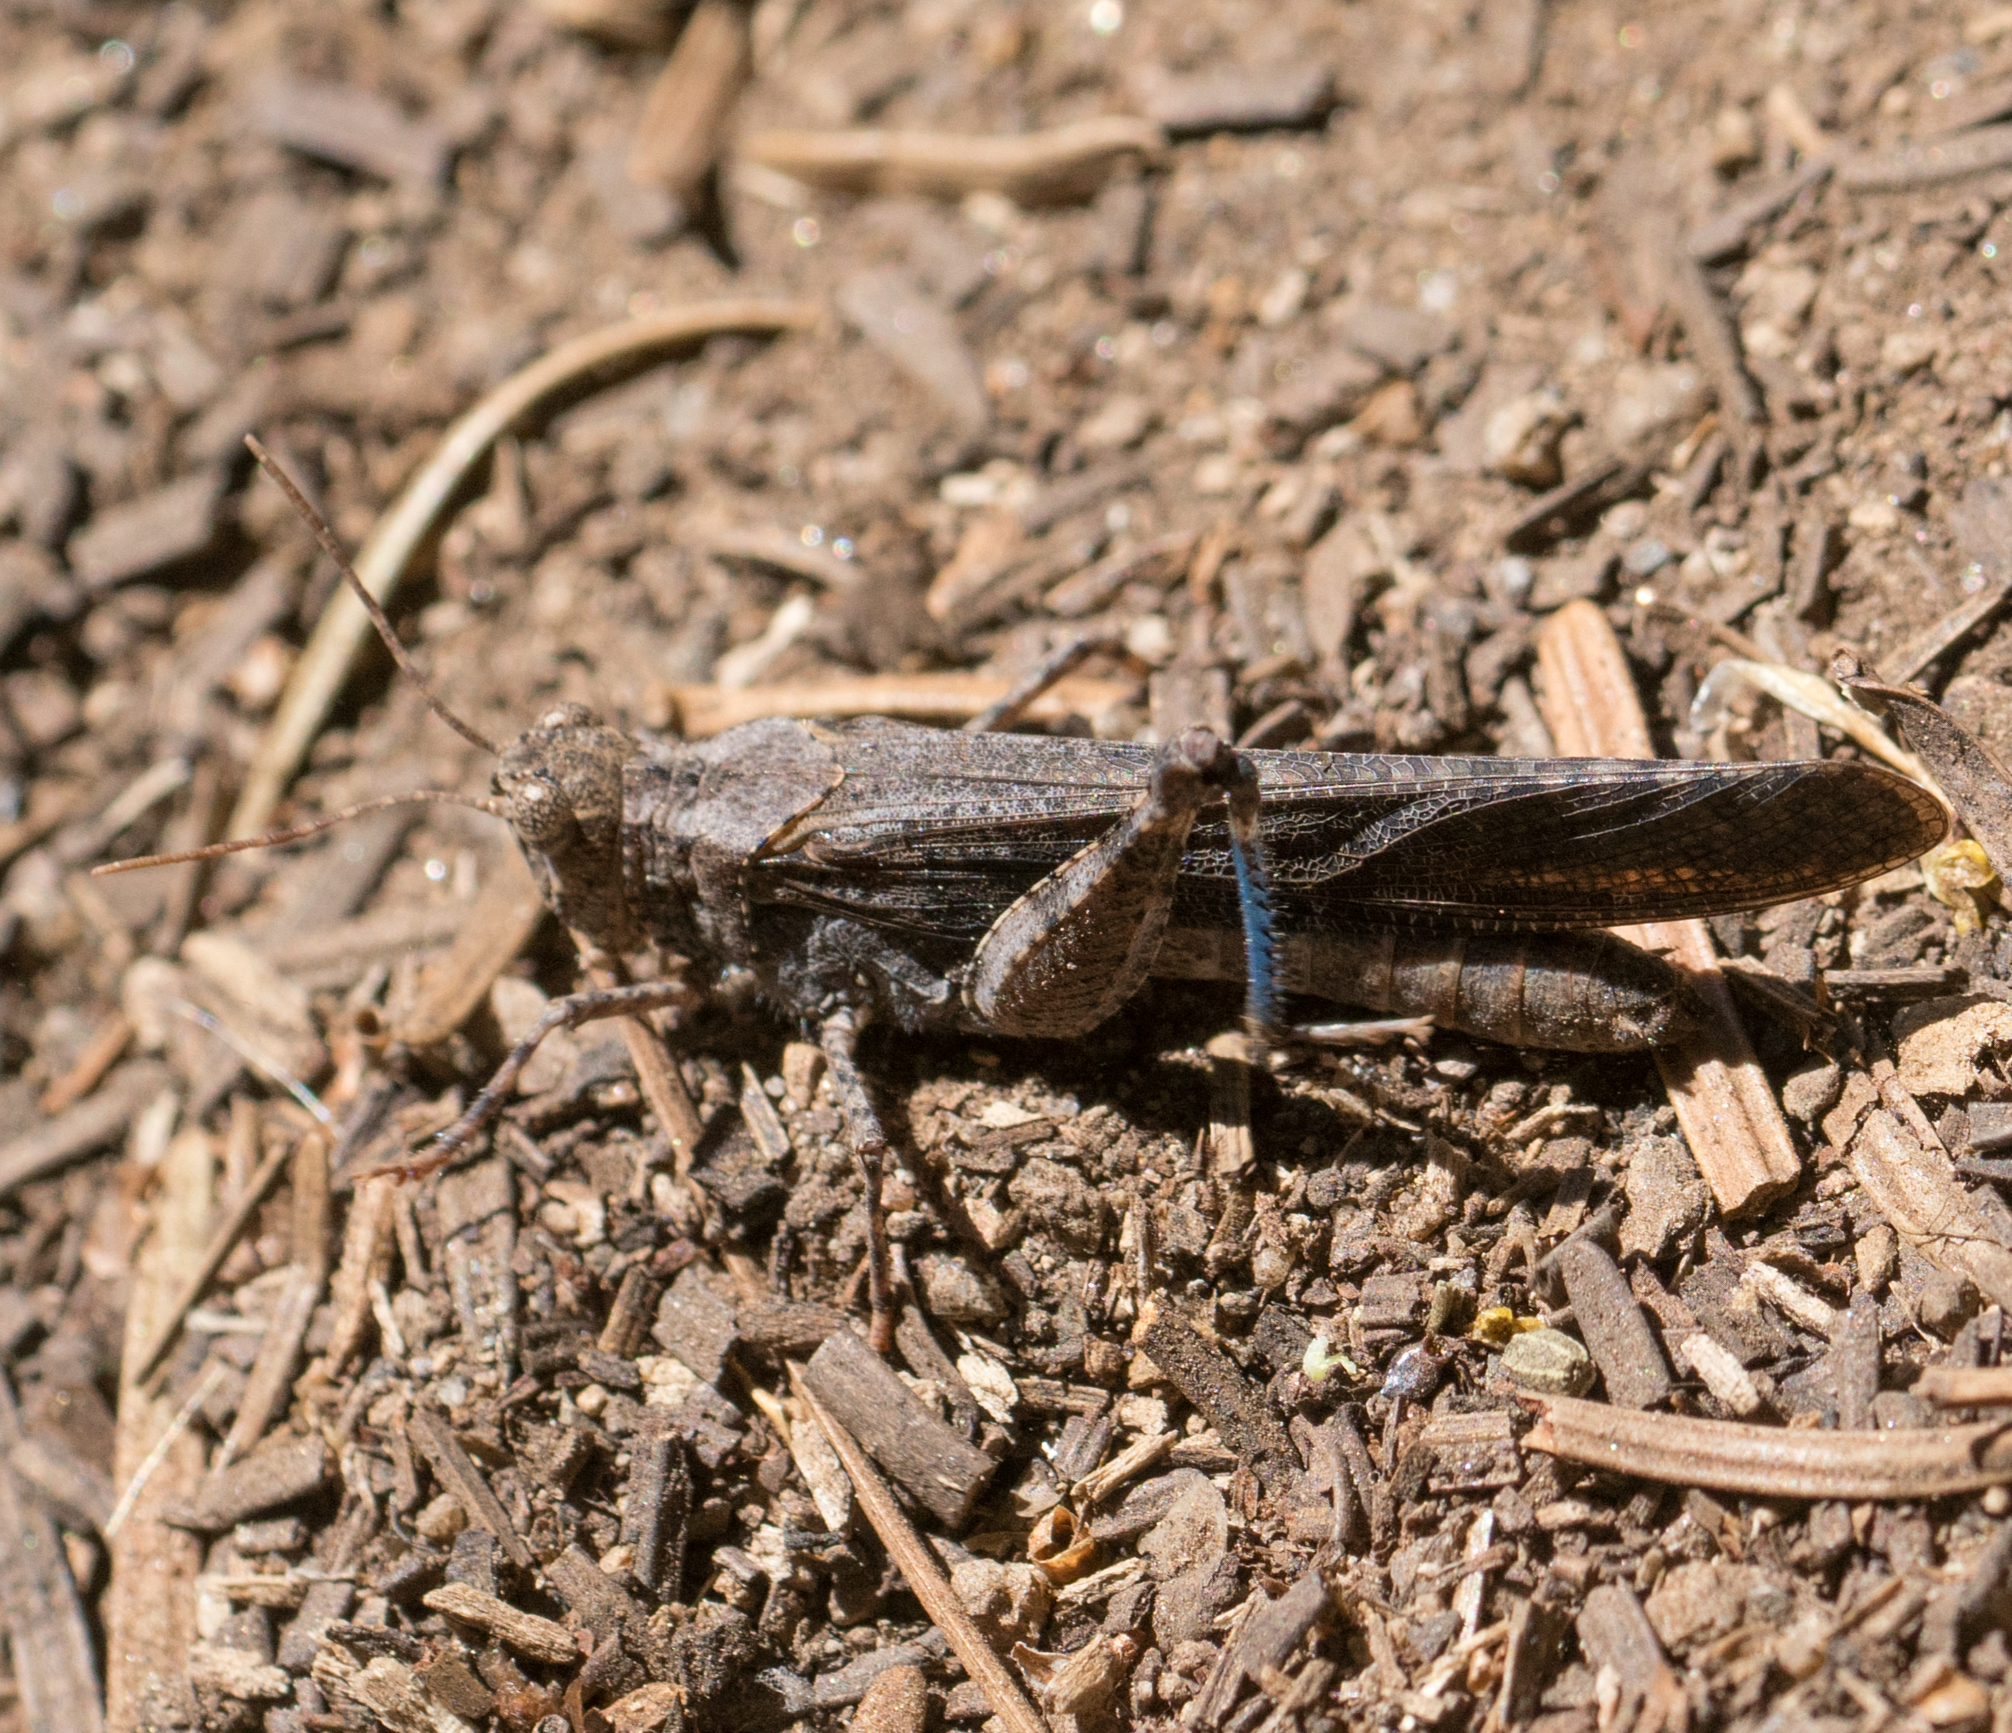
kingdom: Animalia
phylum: Arthropoda
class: Insecta
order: Orthoptera
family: Acrididae
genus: Trimerotropis
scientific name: Trimerotropis verruculata
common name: Crackling forest grasshopper
